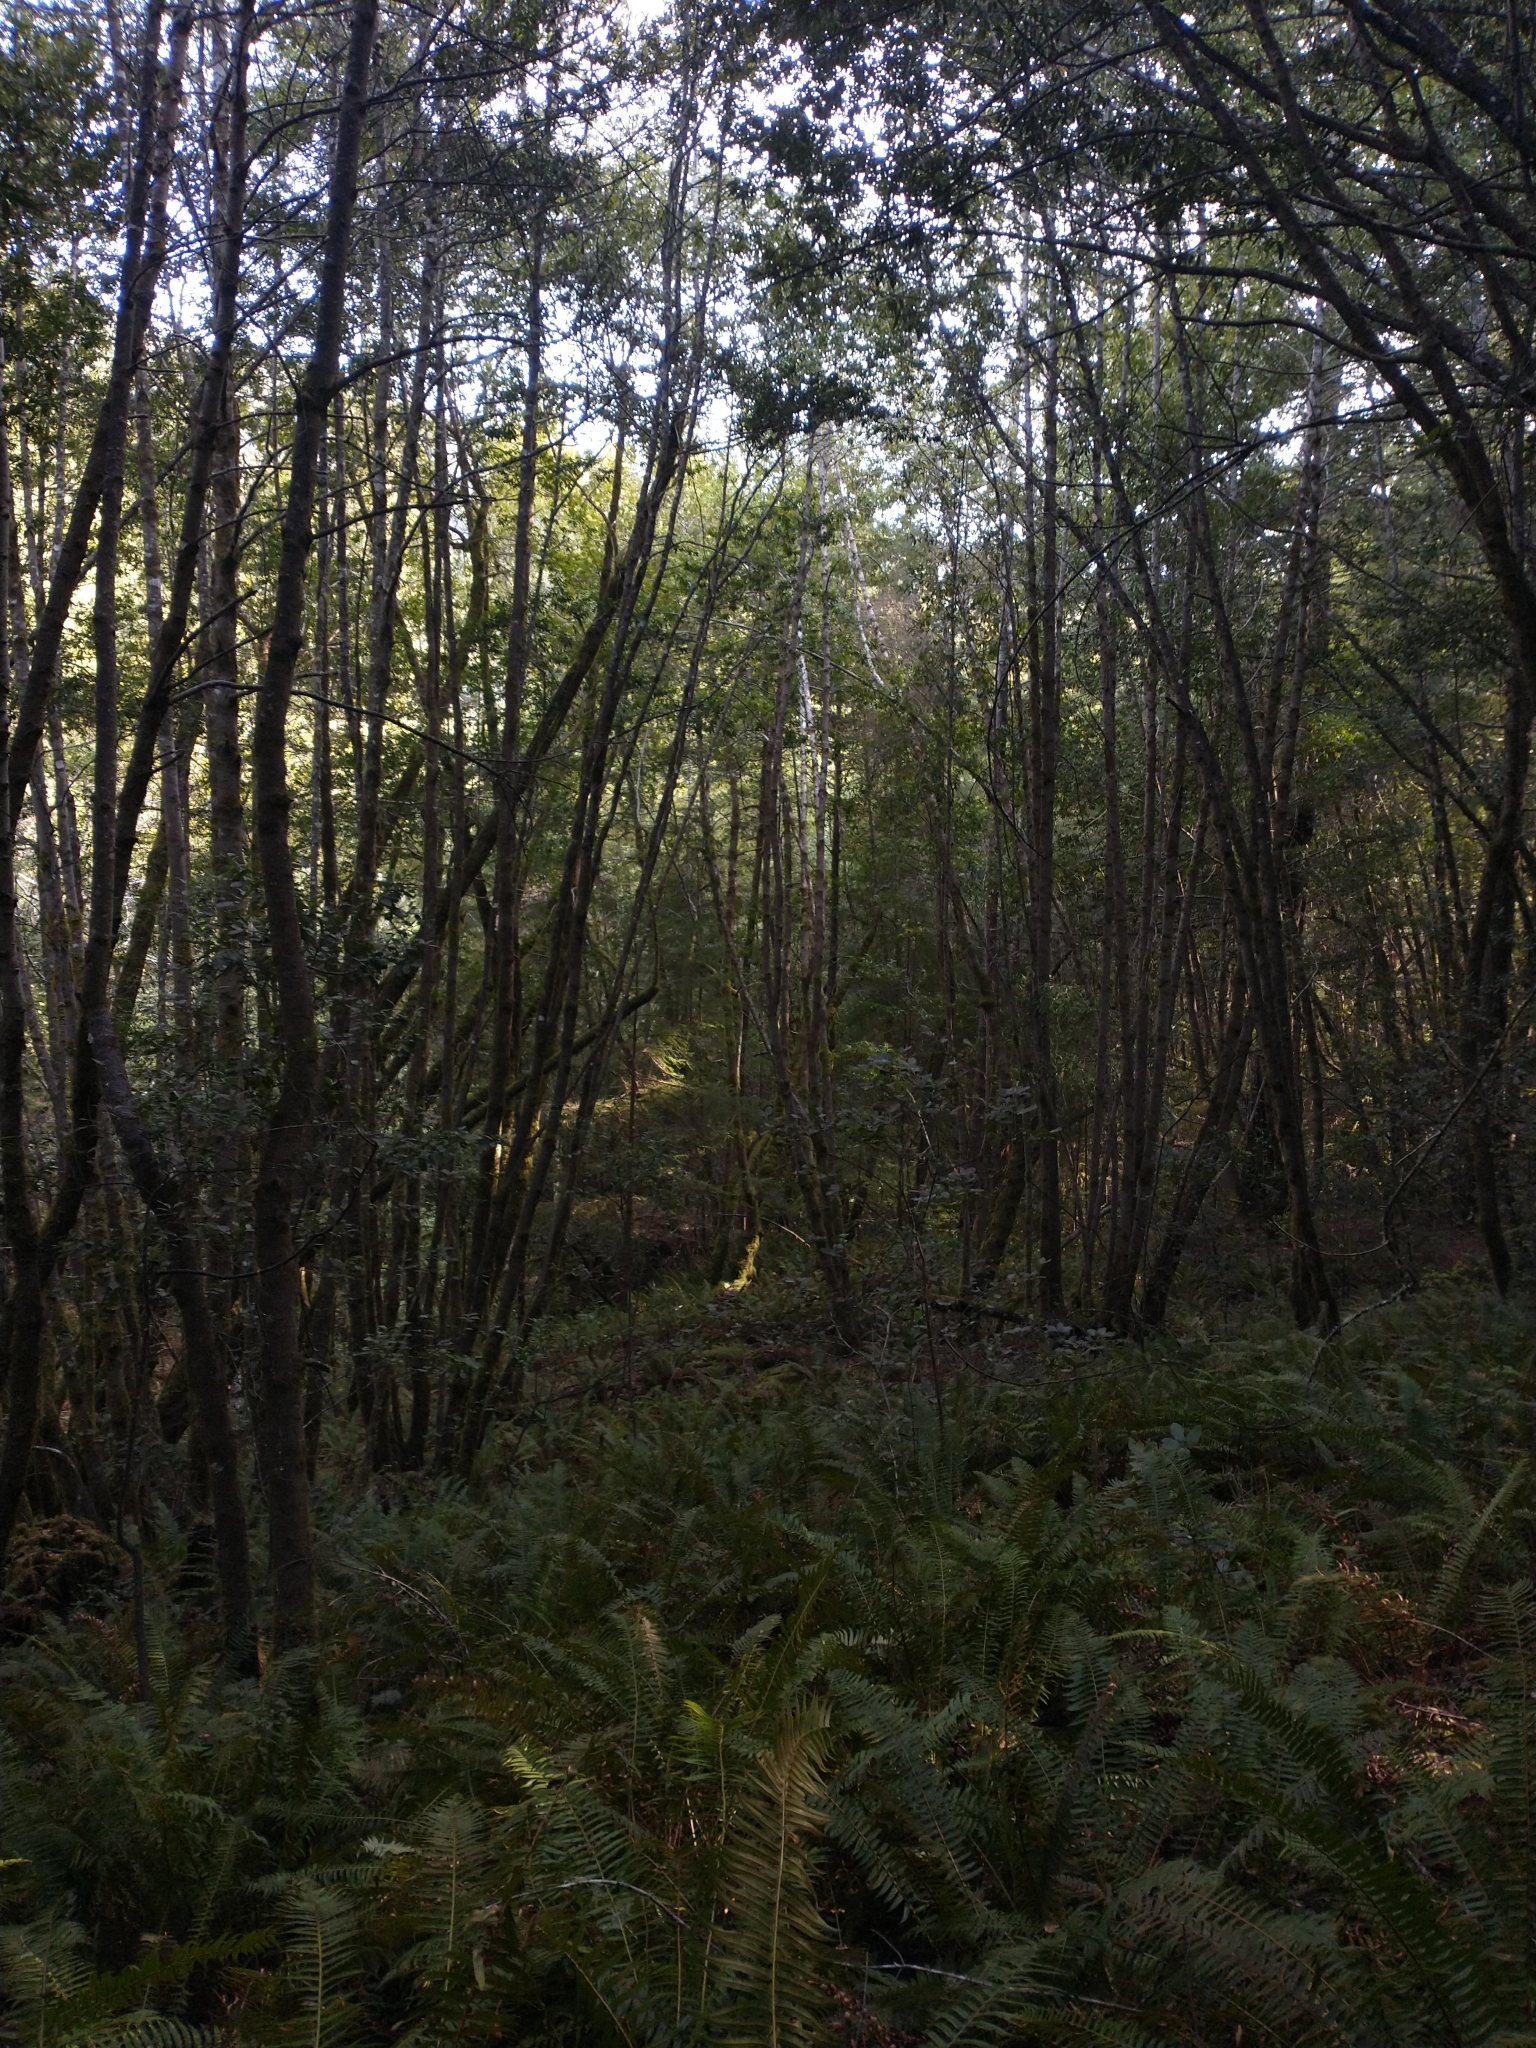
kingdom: Plantae
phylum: Tracheophyta
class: Magnoliopsida
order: Laurales
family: Lauraceae
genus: Umbellularia
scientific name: Umbellularia californica
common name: California bay
